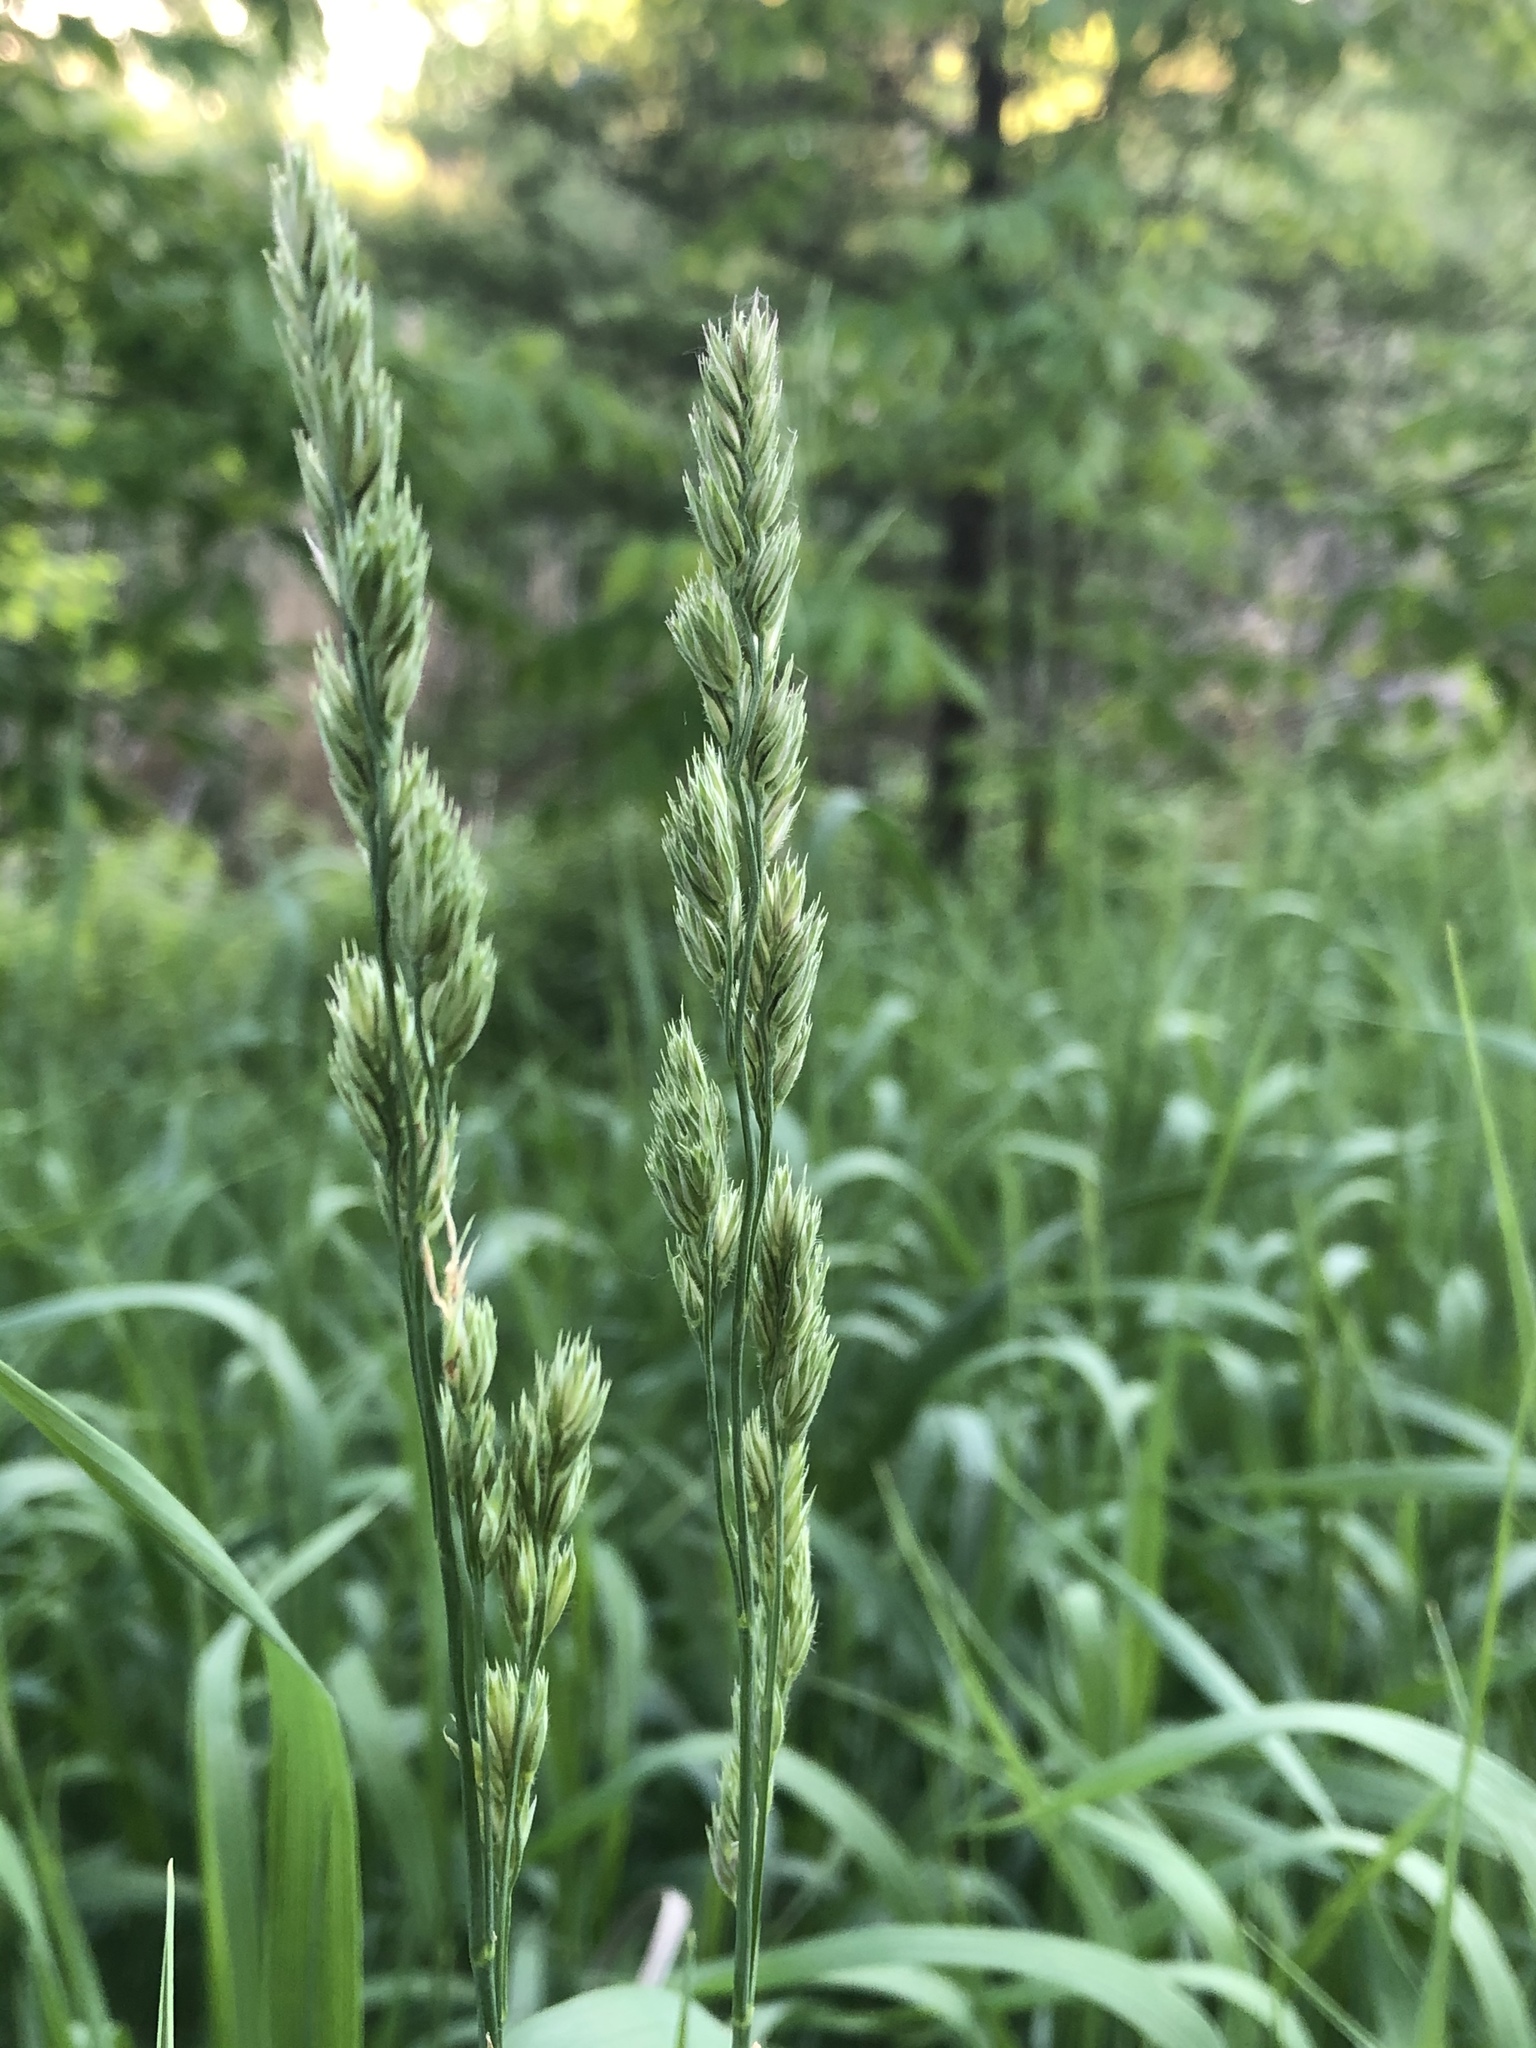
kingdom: Plantae
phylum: Tracheophyta
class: Liliopsida
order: Poales
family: Poaceae
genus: Dactylis
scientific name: Dactylis glomerata
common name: Orchardgrass
